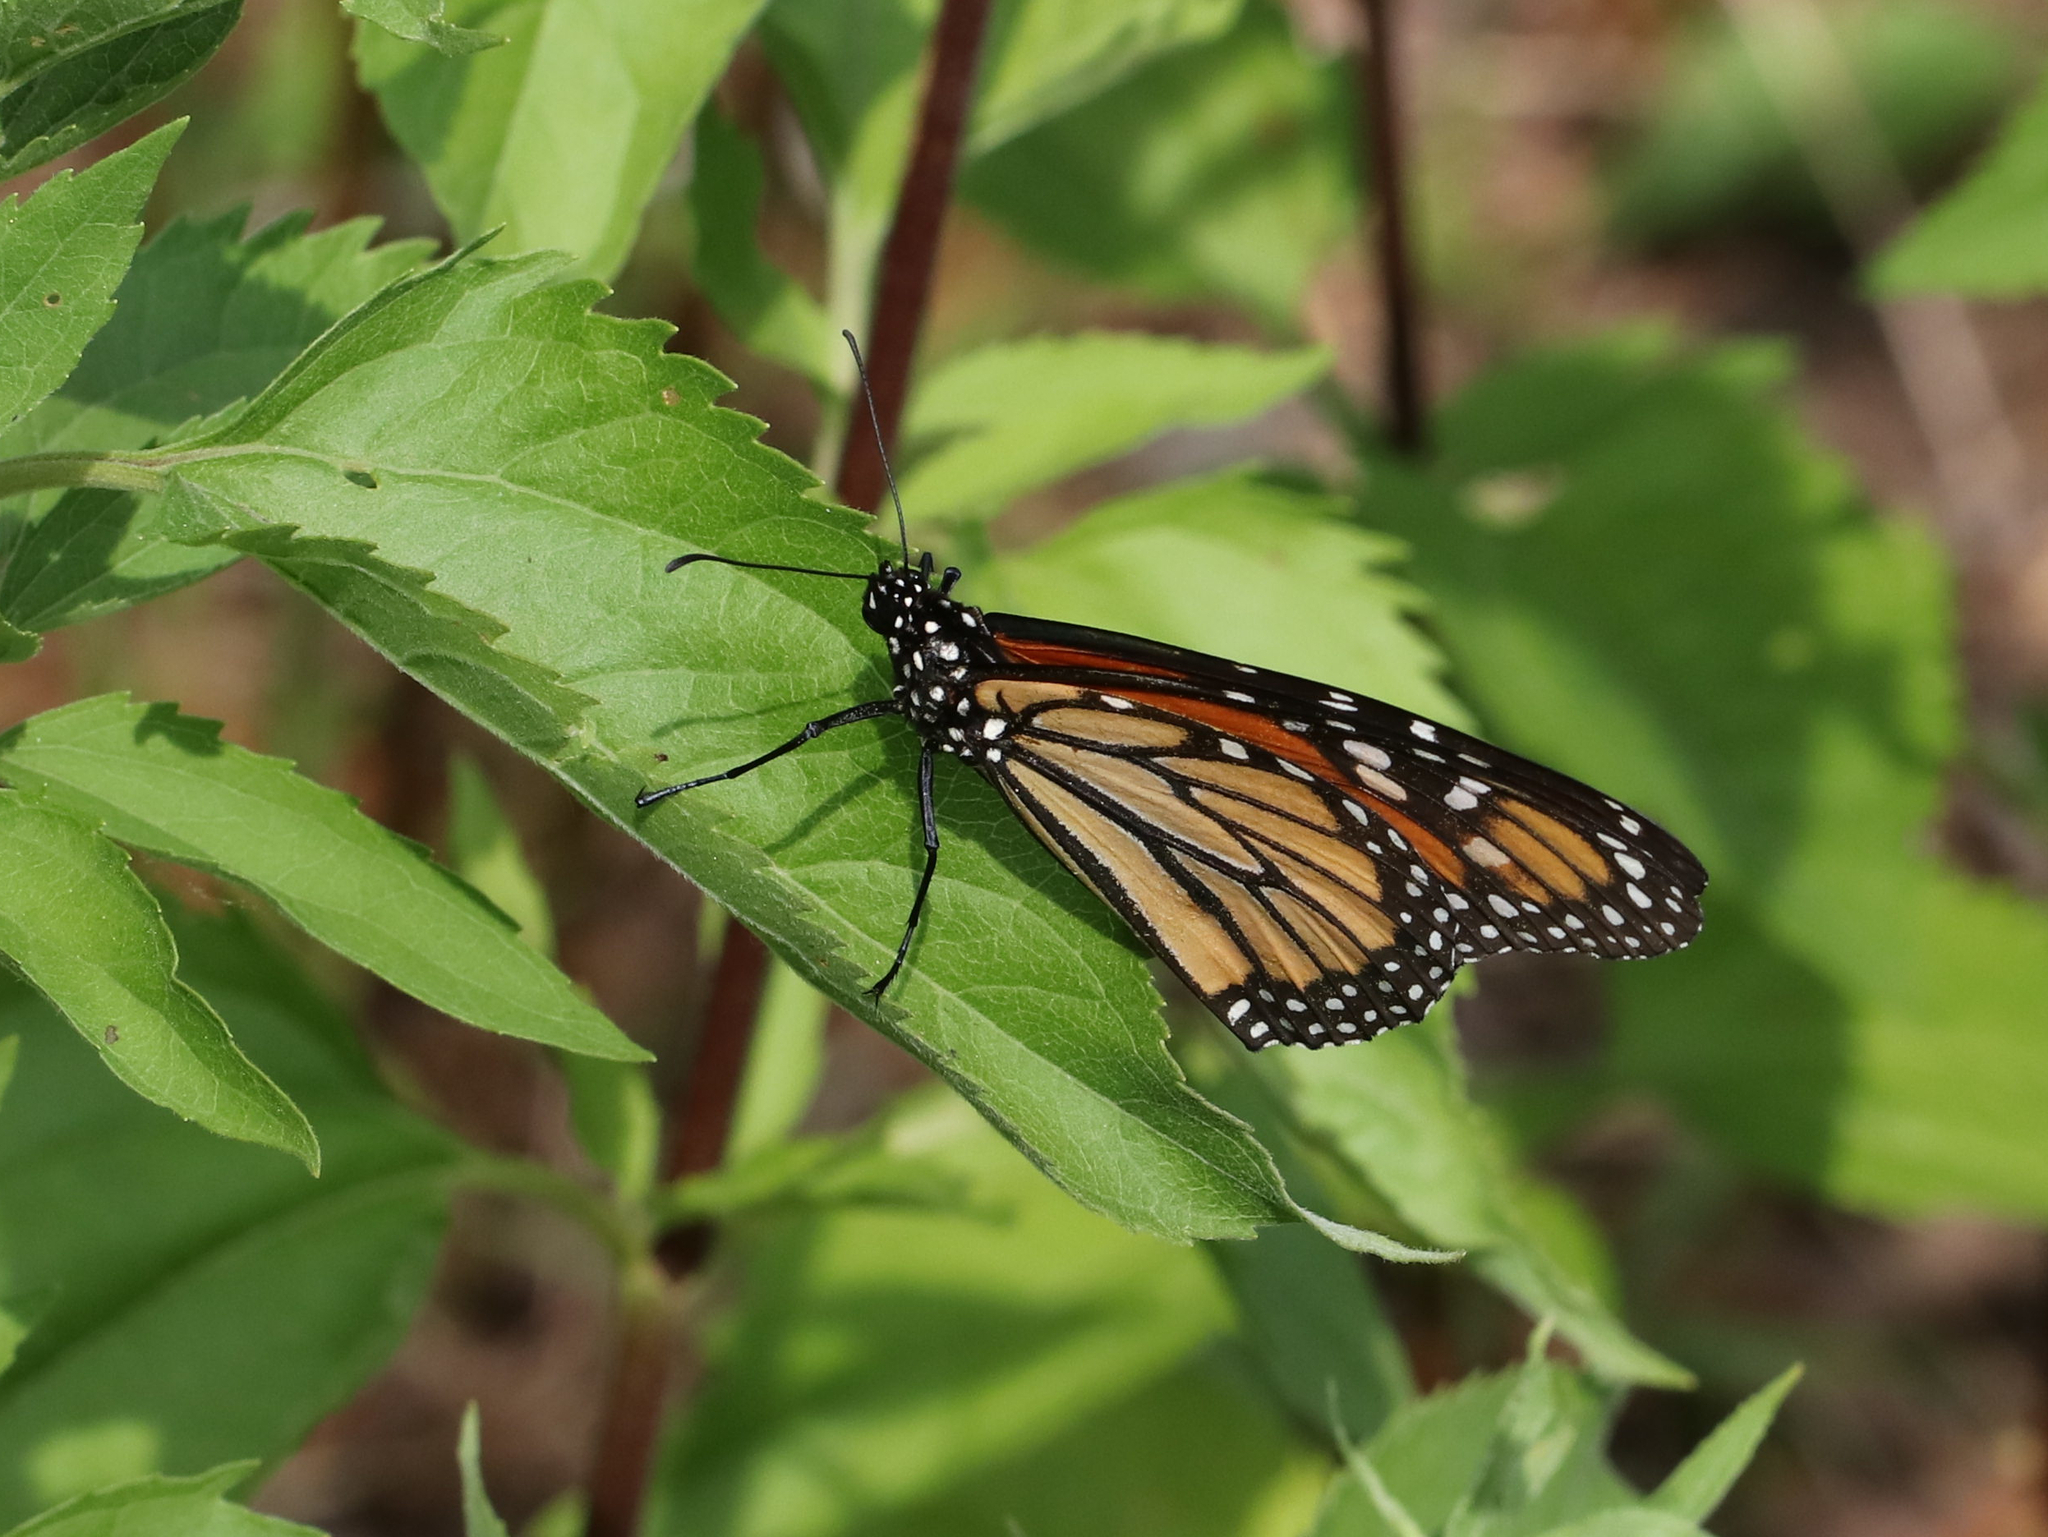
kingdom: Animalia
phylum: Arthropoda
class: Insecta
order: Lepidoptera
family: Nymphalidae
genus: Danaus
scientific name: Danaus plexippus
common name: Monarch
